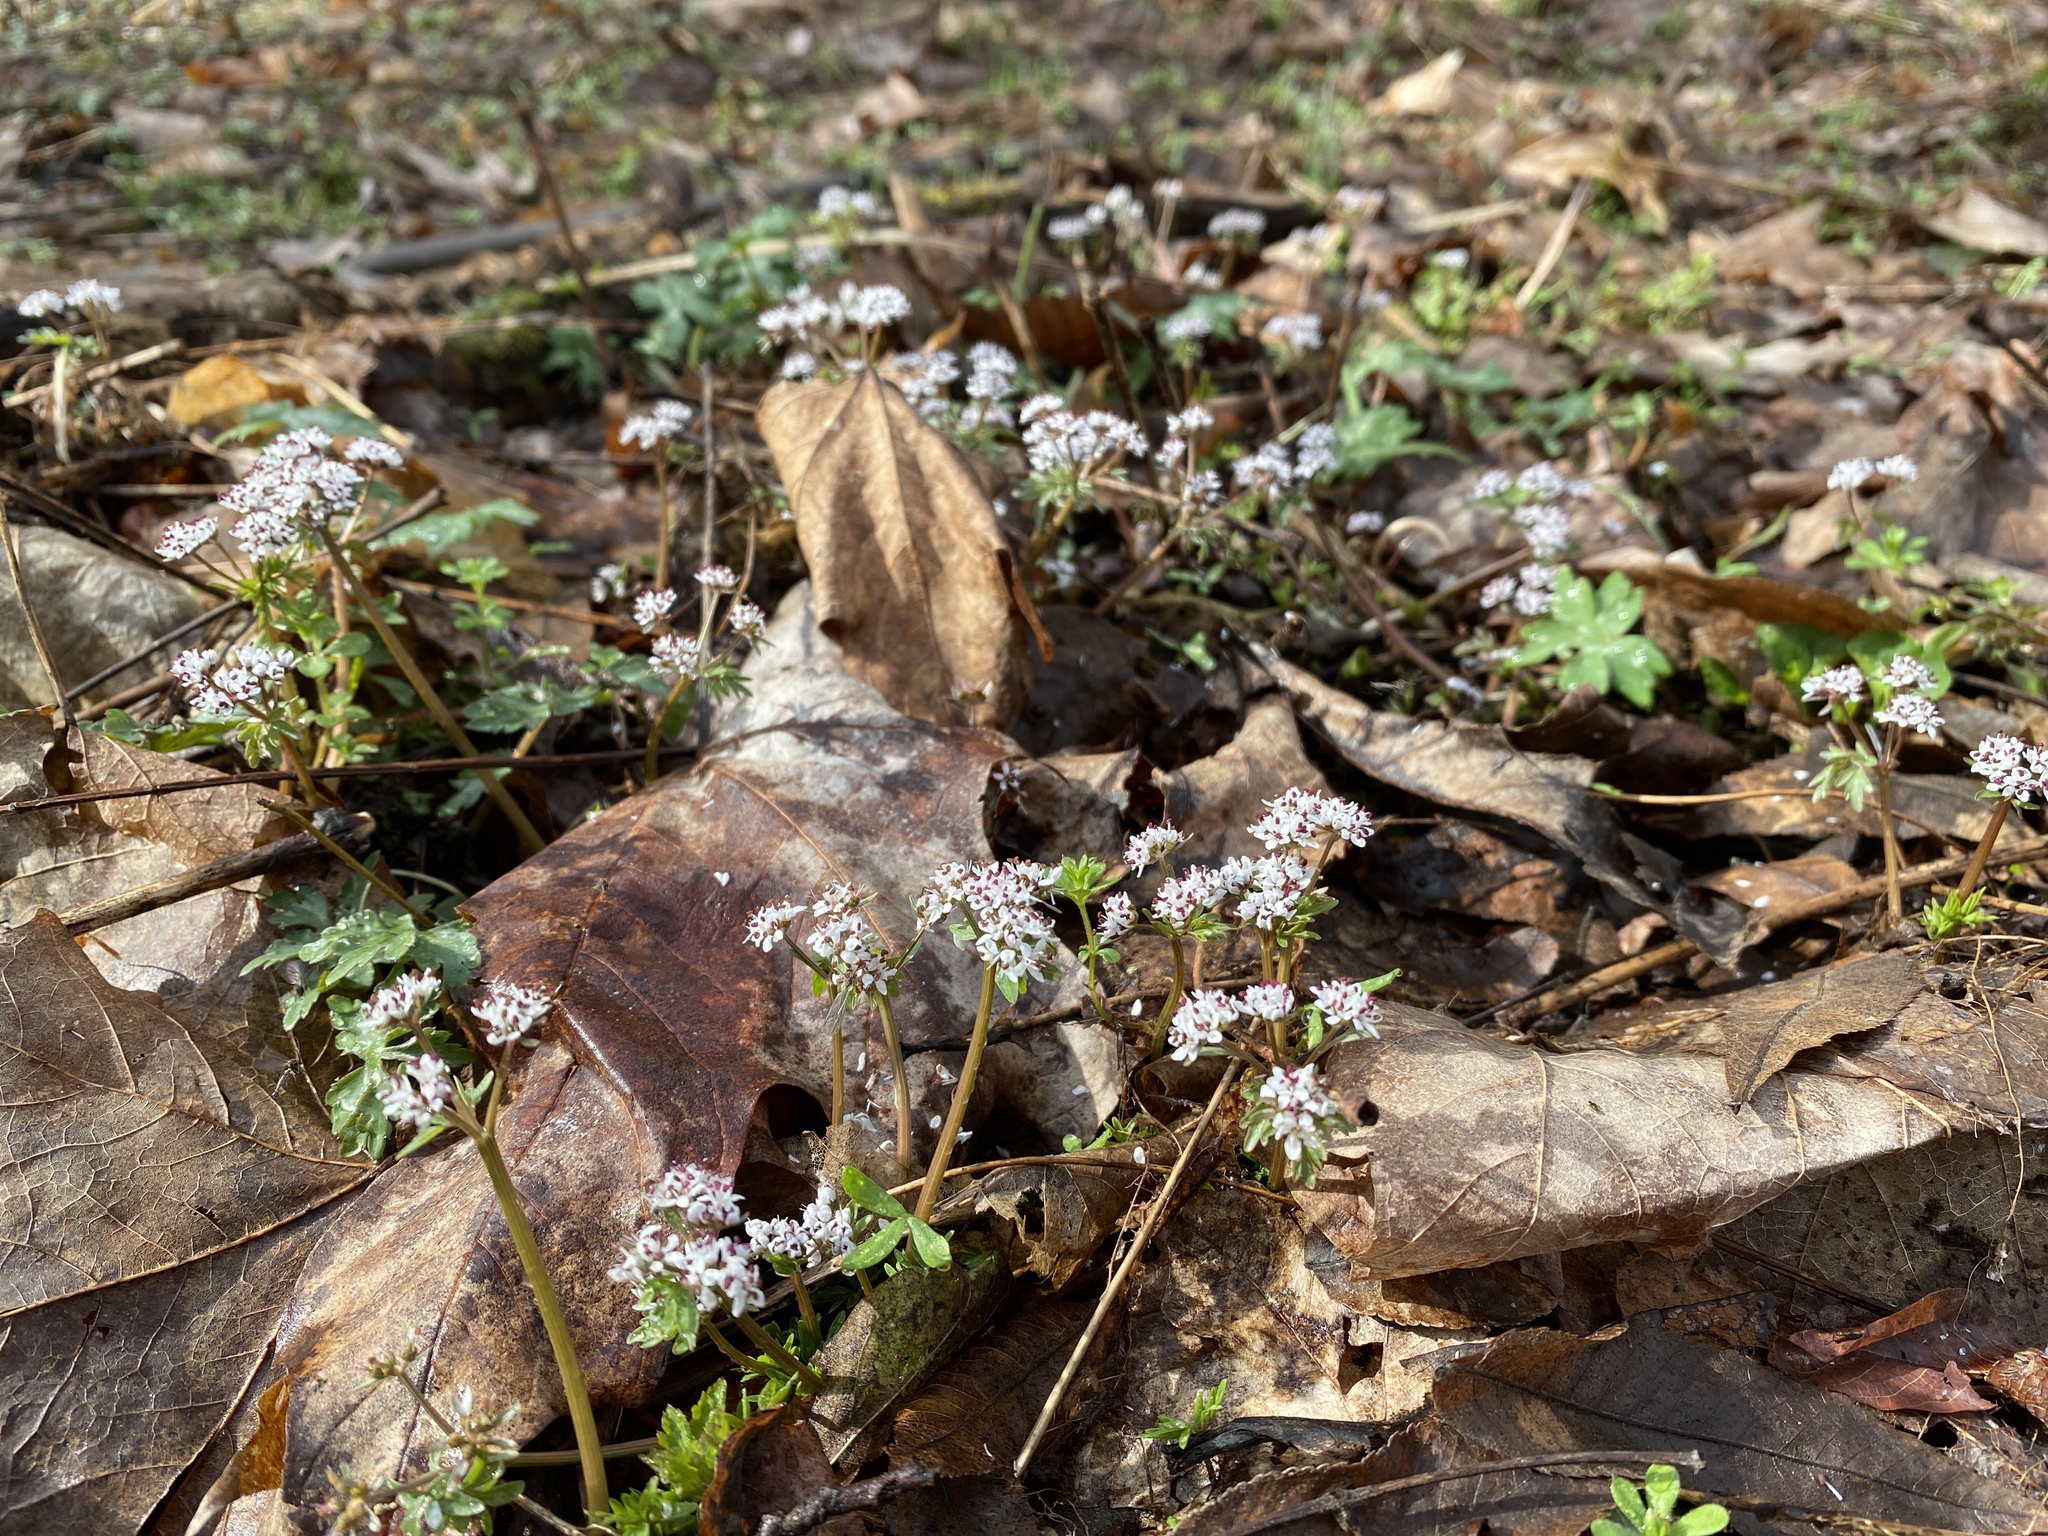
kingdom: Plantae
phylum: Tracheophyta
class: Magnoliopsida
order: Apiales
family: Apiaceae
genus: Erigenia
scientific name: Erigenia bulbosa
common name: Pepper-and-salt
